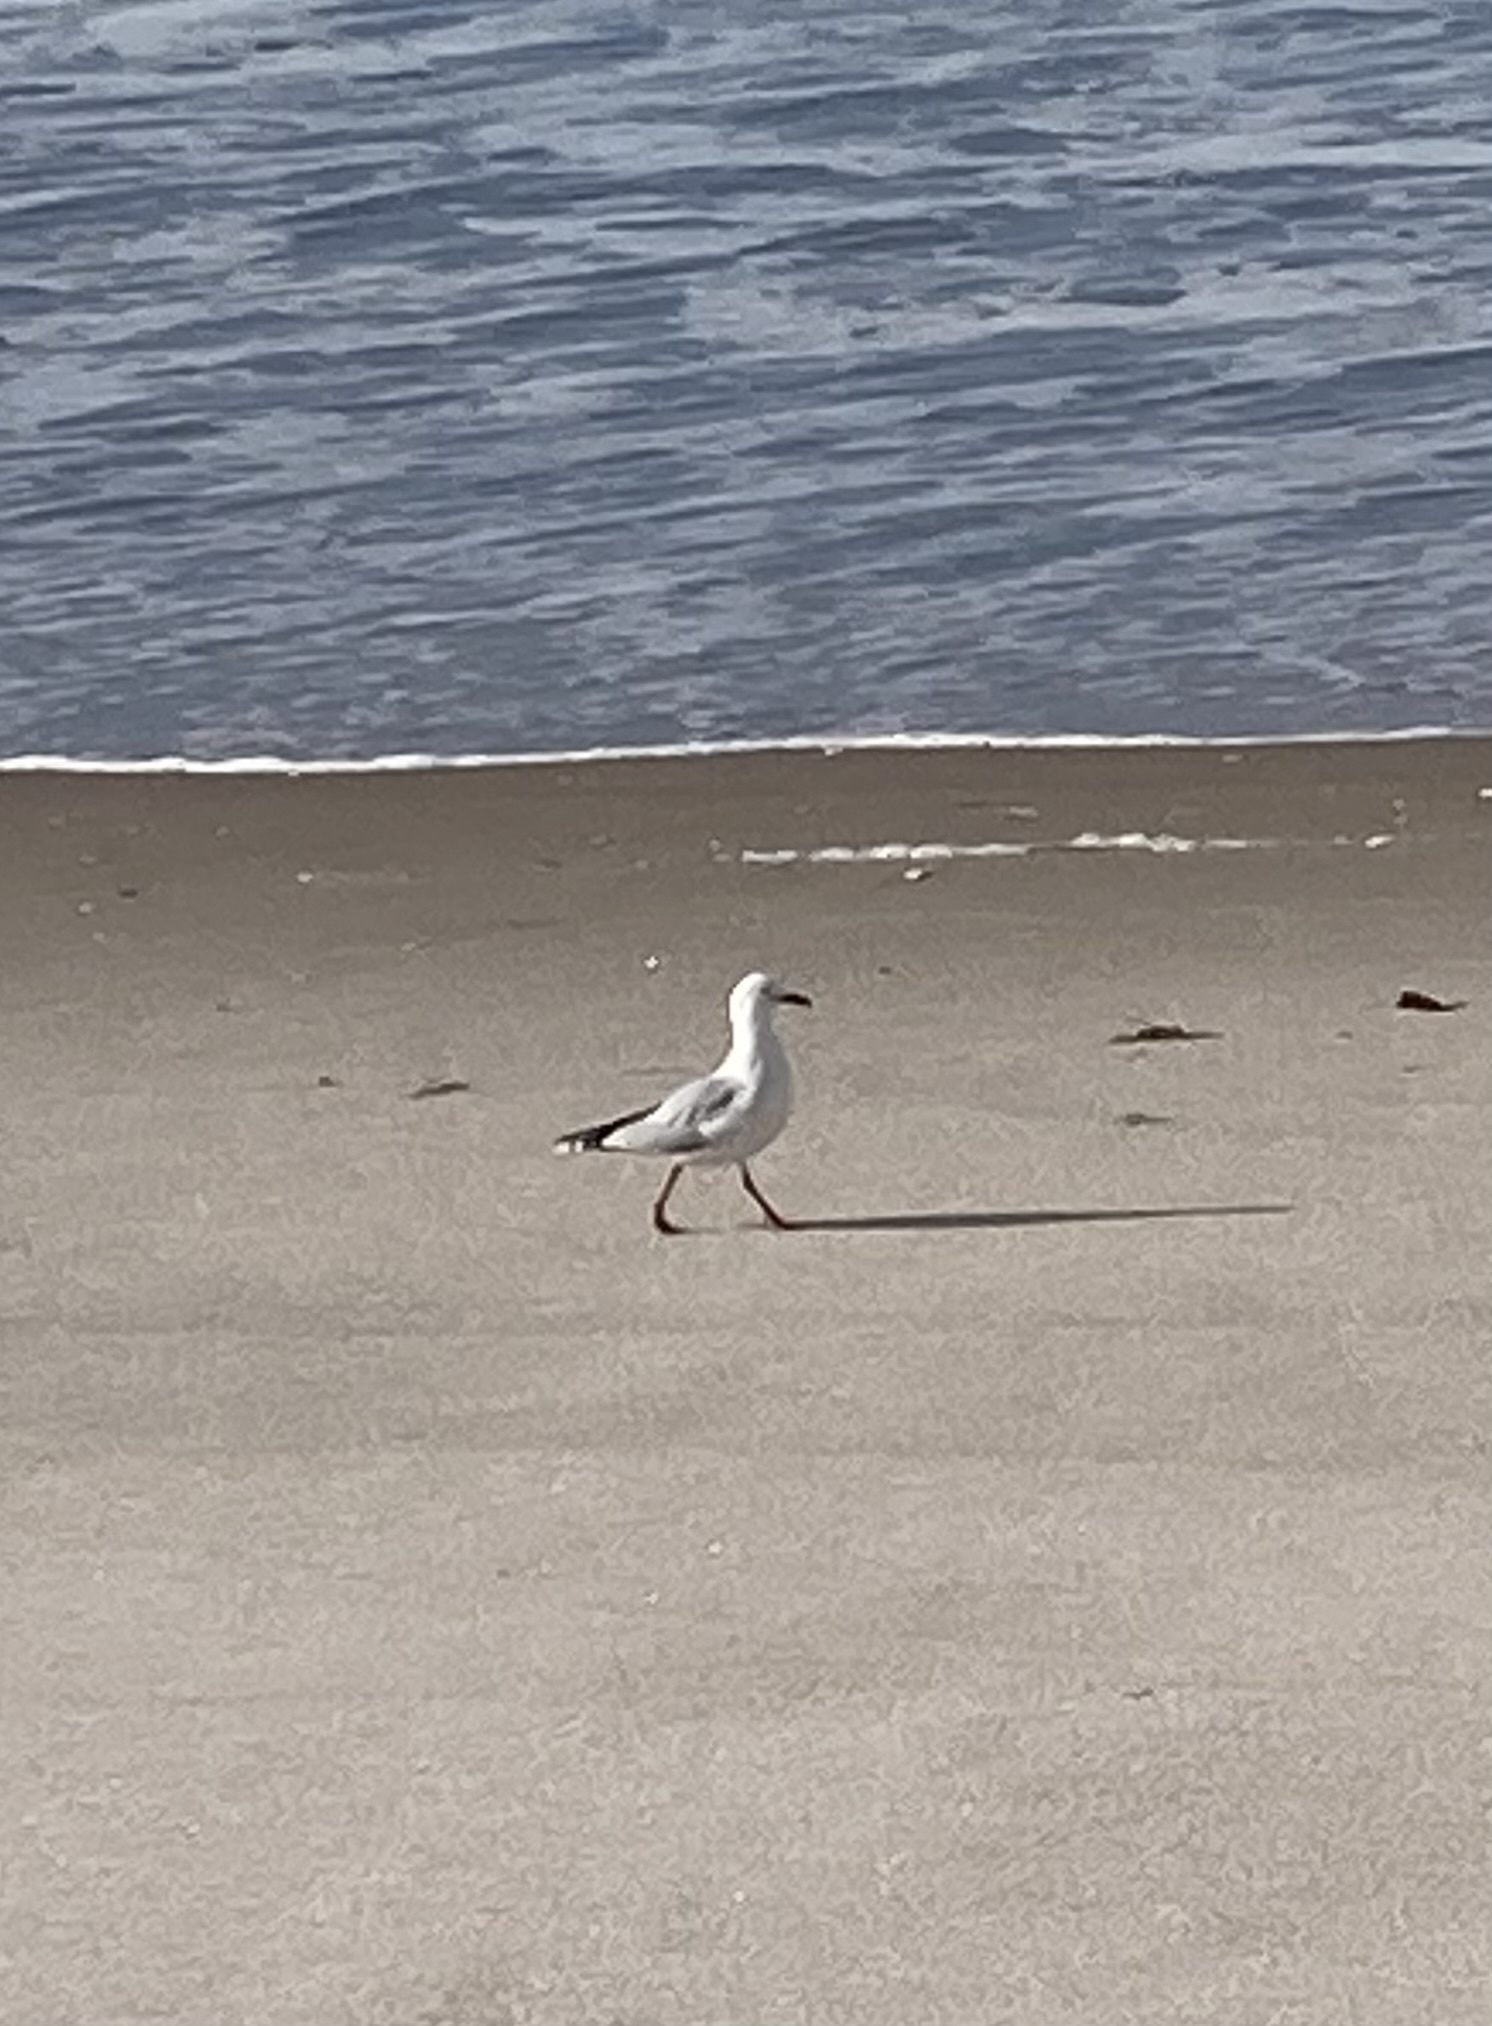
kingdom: Animalia
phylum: Chordata
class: Aves
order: Charadriiformes
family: Laridae
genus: Chroicocephalus
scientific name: Chroicocephalus novaehollandiae
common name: Silver gull
